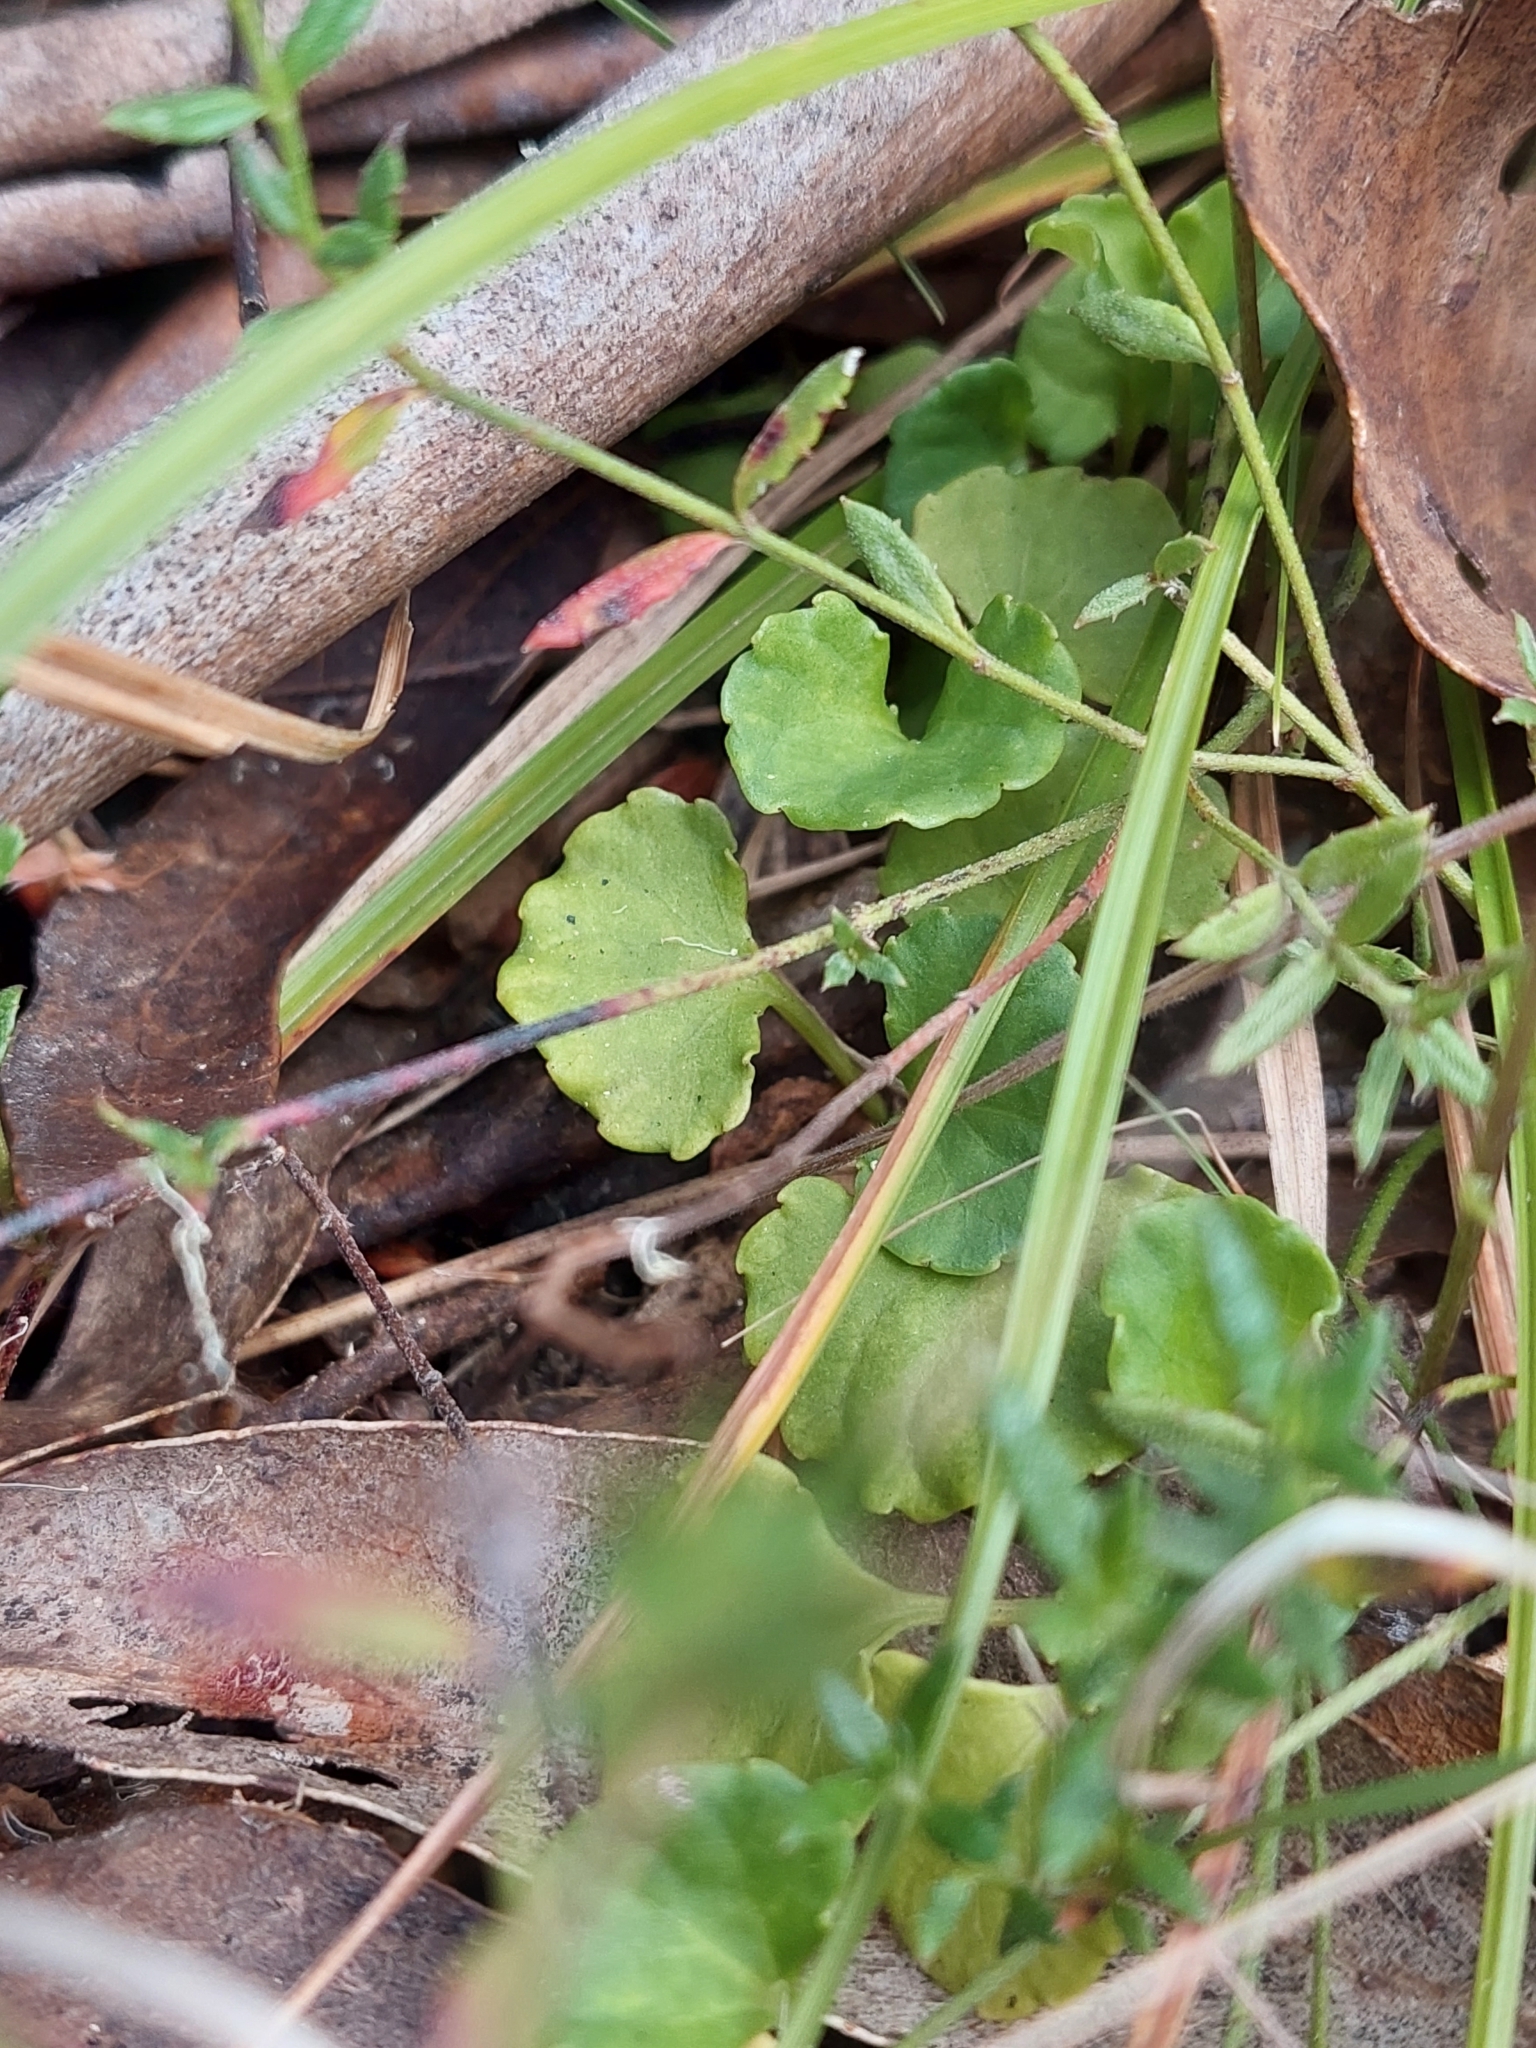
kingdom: Plantae
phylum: Tracheophyta
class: Magnoliopsida
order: Malpighiales
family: Violaceae
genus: Viola
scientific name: Viola hederacea
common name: Australian violet
